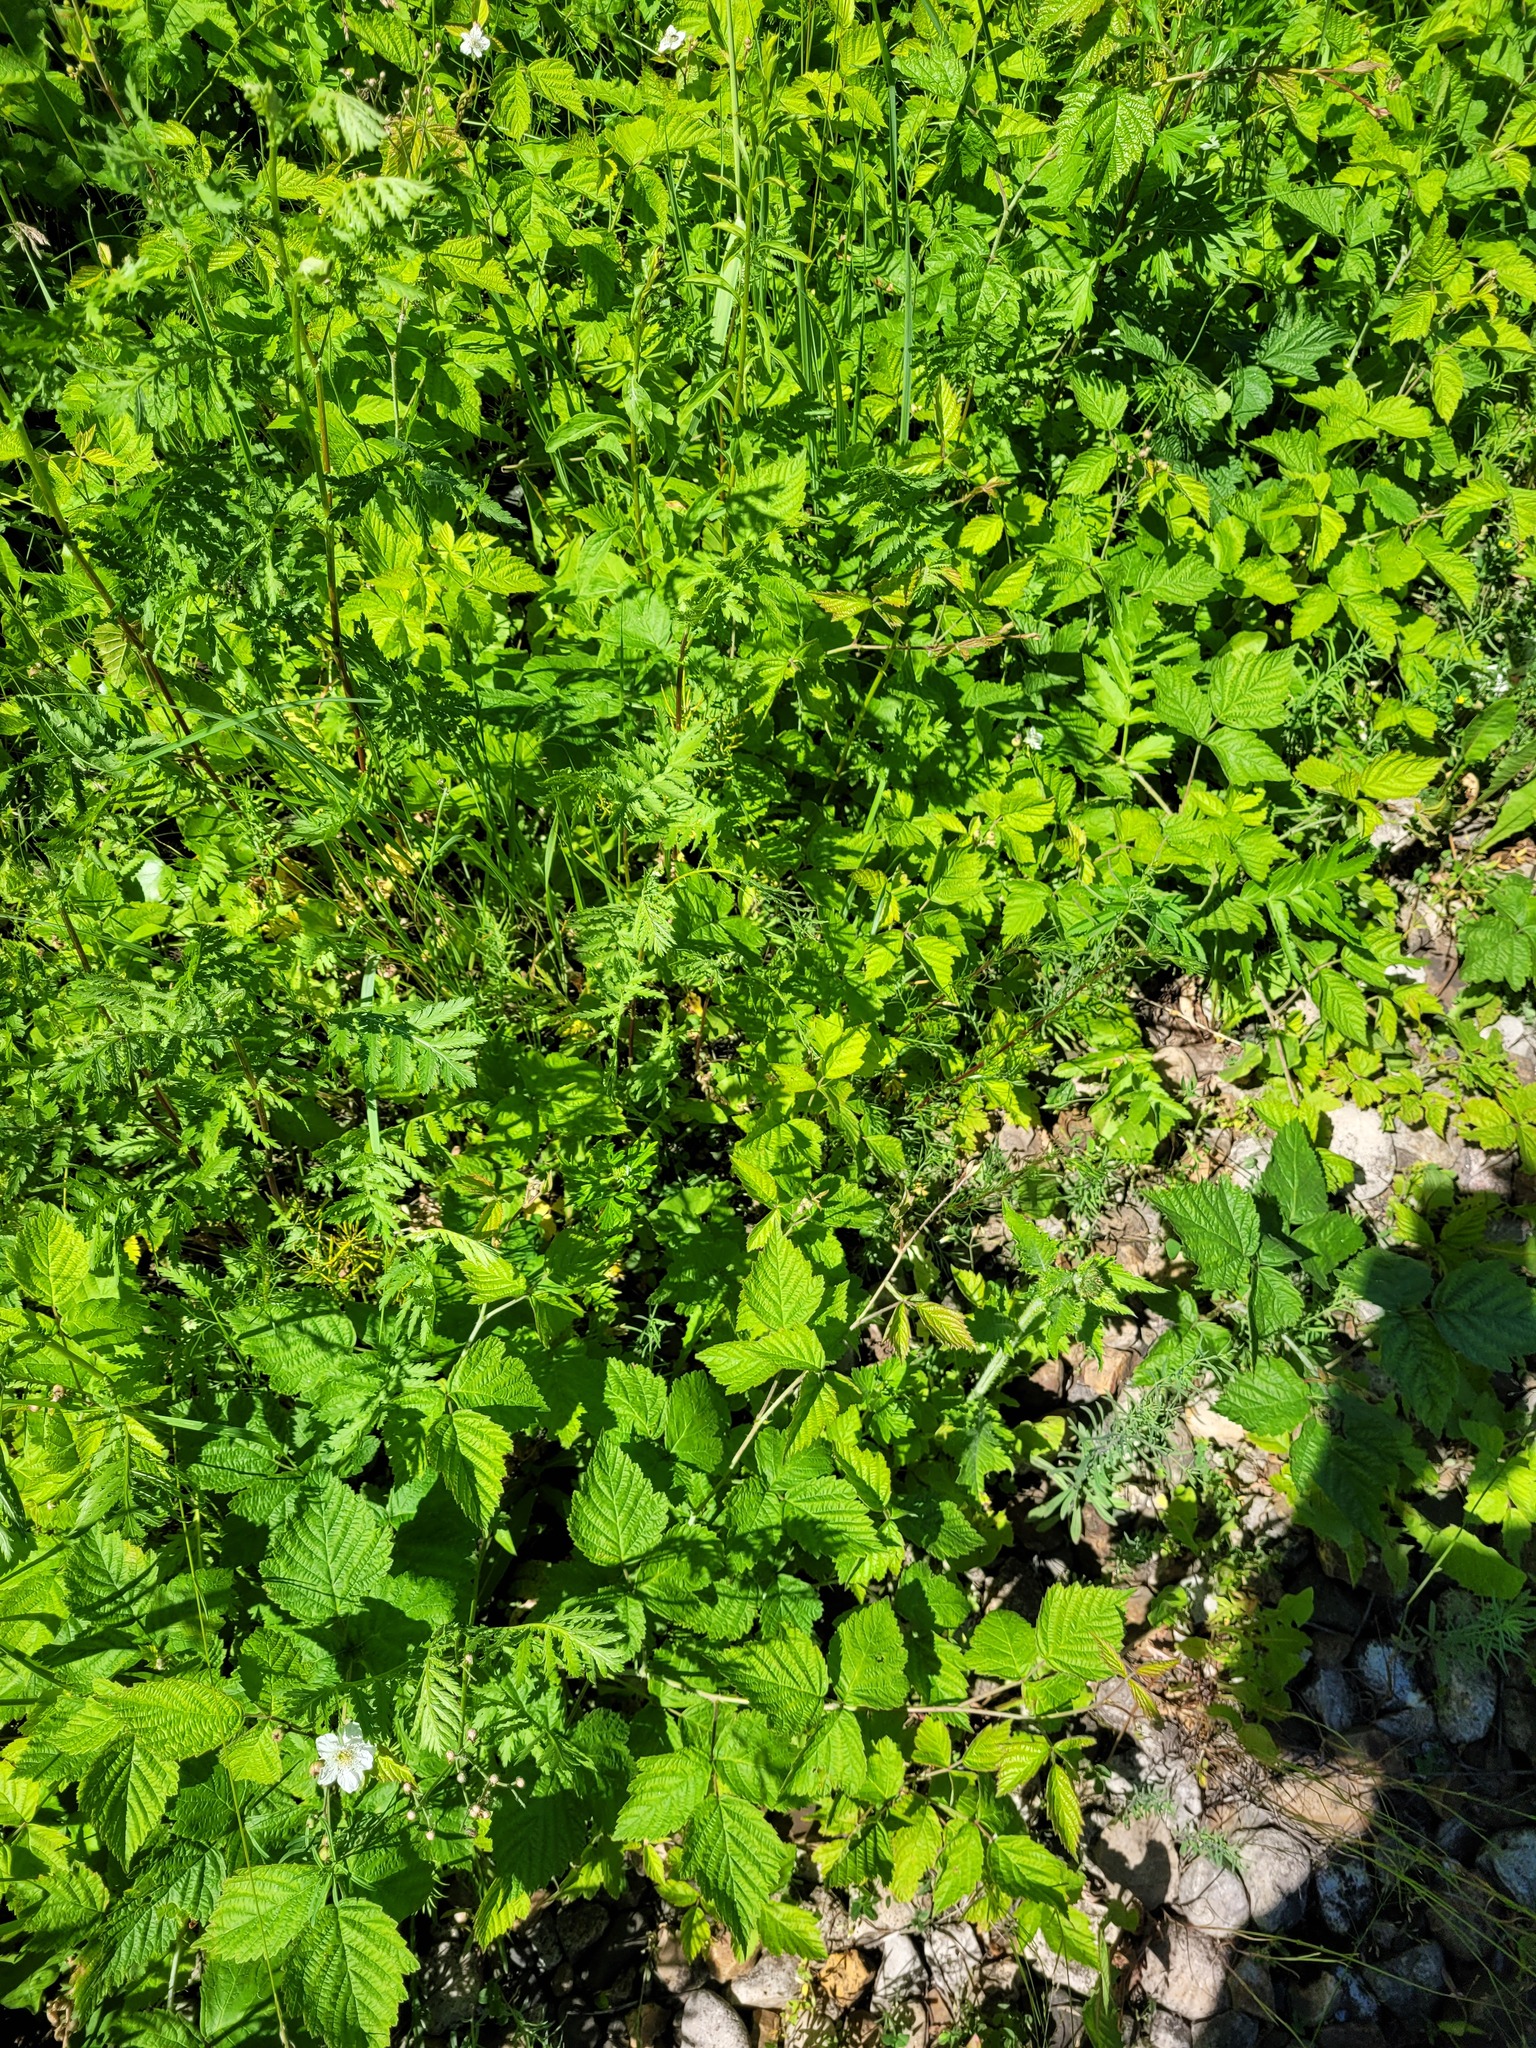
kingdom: Plantae
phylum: Tracheophyta
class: Magnoliopsida
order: Rosales
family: Rosaceae
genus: Rubus
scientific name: Rubus caesius
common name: Dewberry
